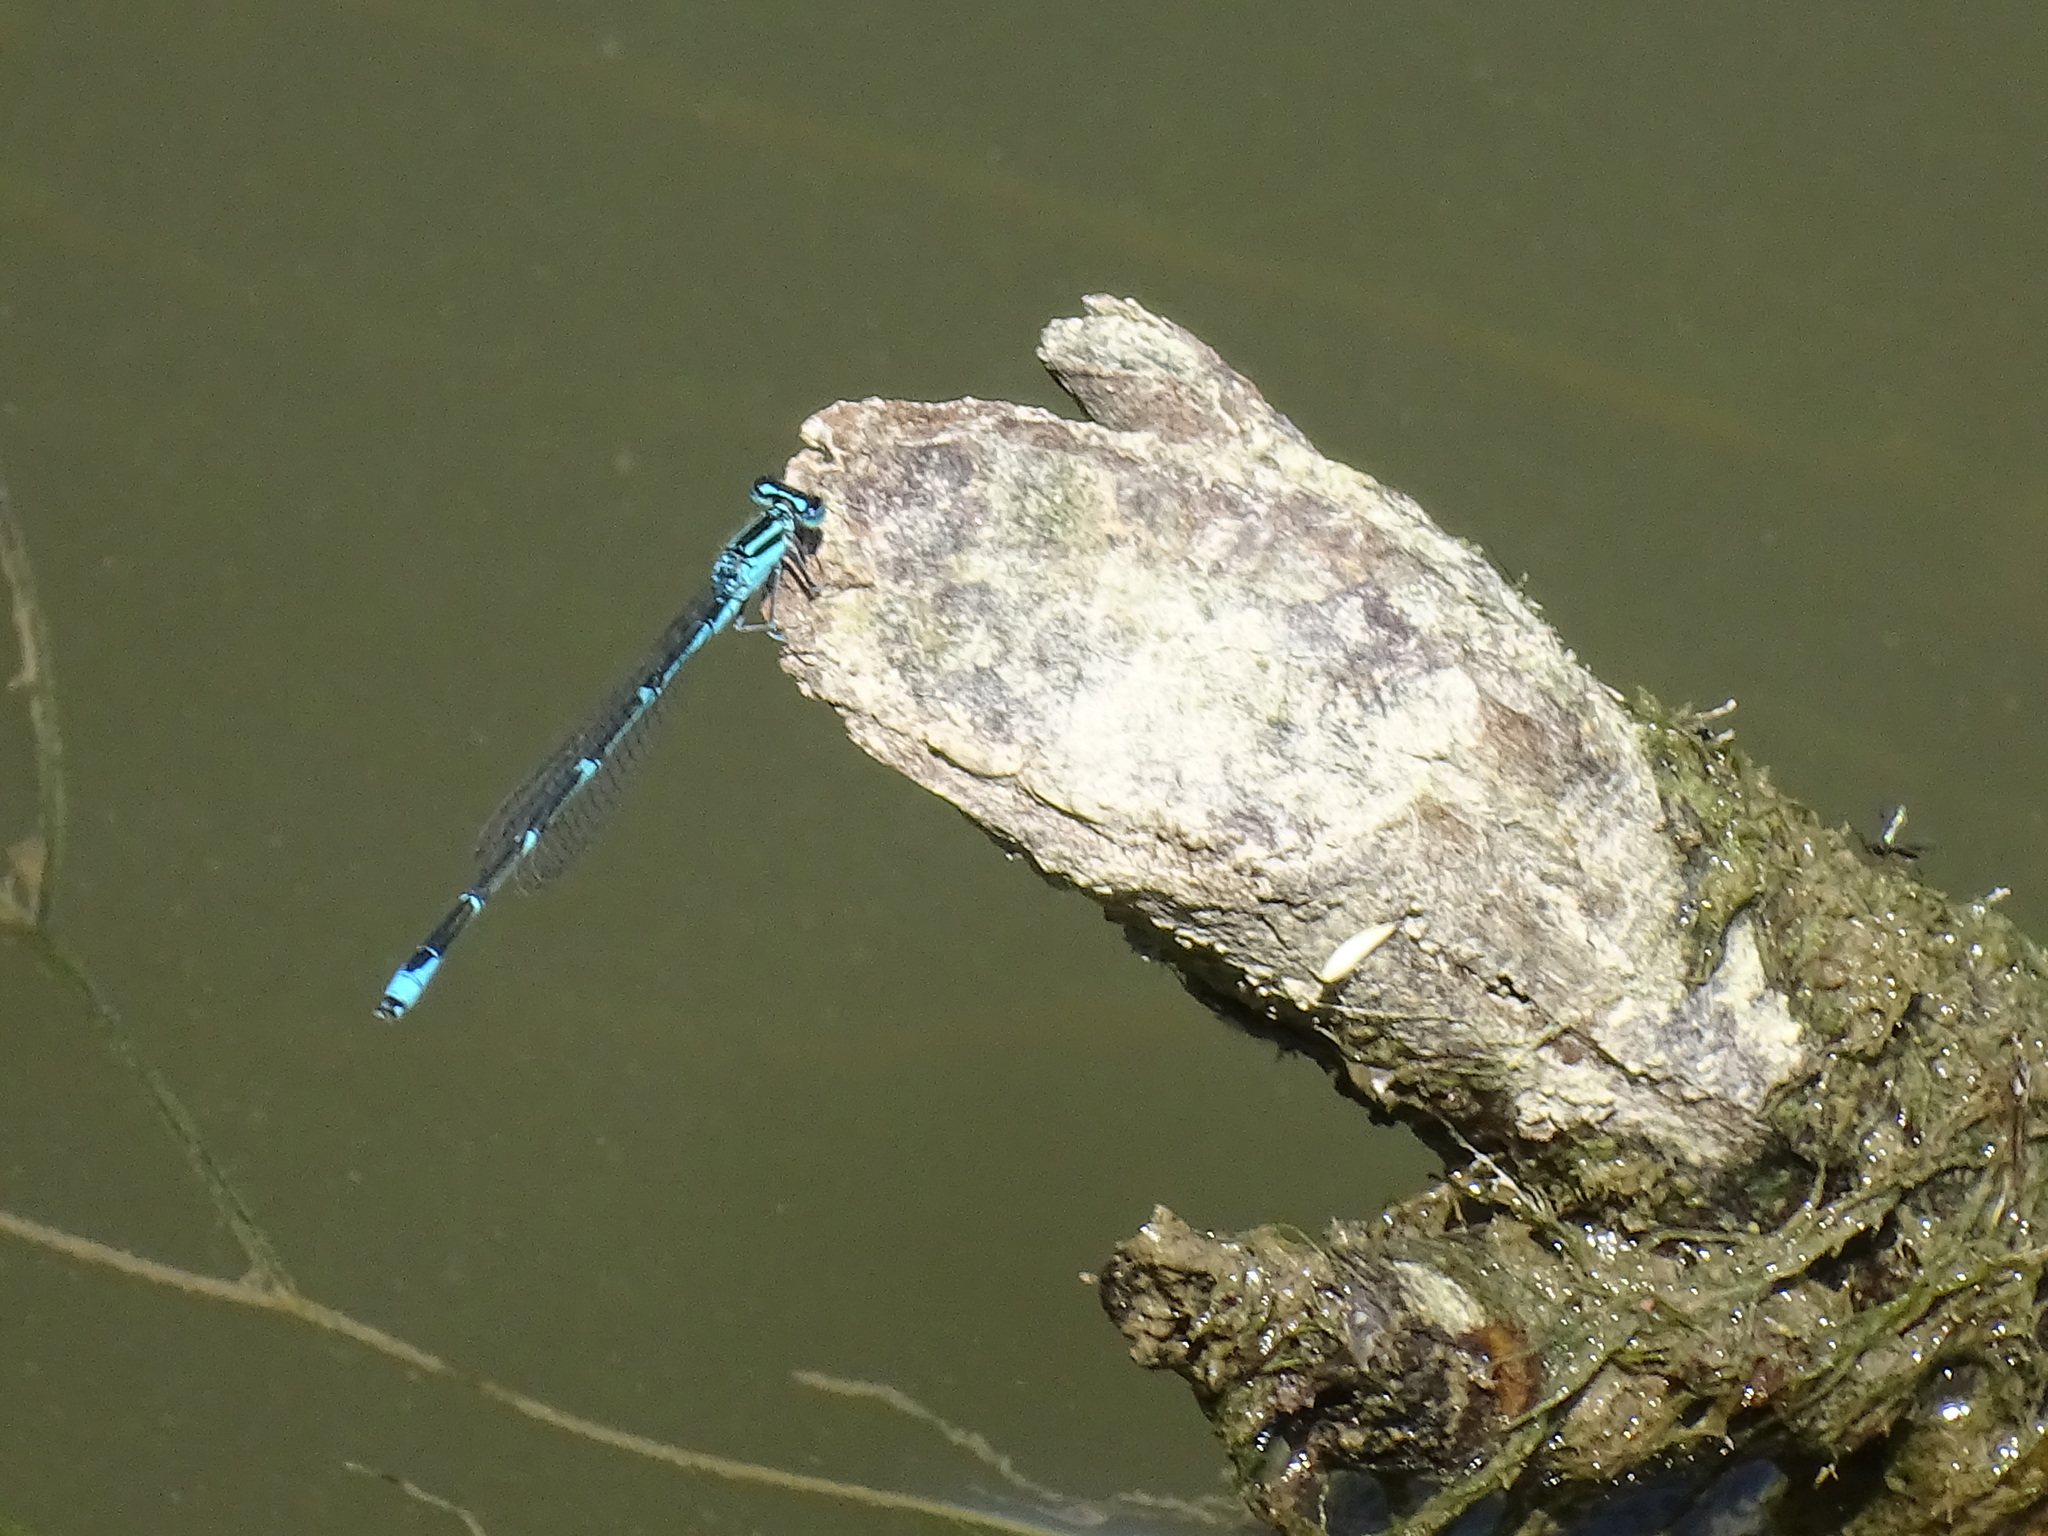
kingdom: Animalia
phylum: Arthropoda
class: Insecta
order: Odonata
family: Coenagrionidae
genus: Enallagma
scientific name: Enallagma exsulans
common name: Stream bluet
